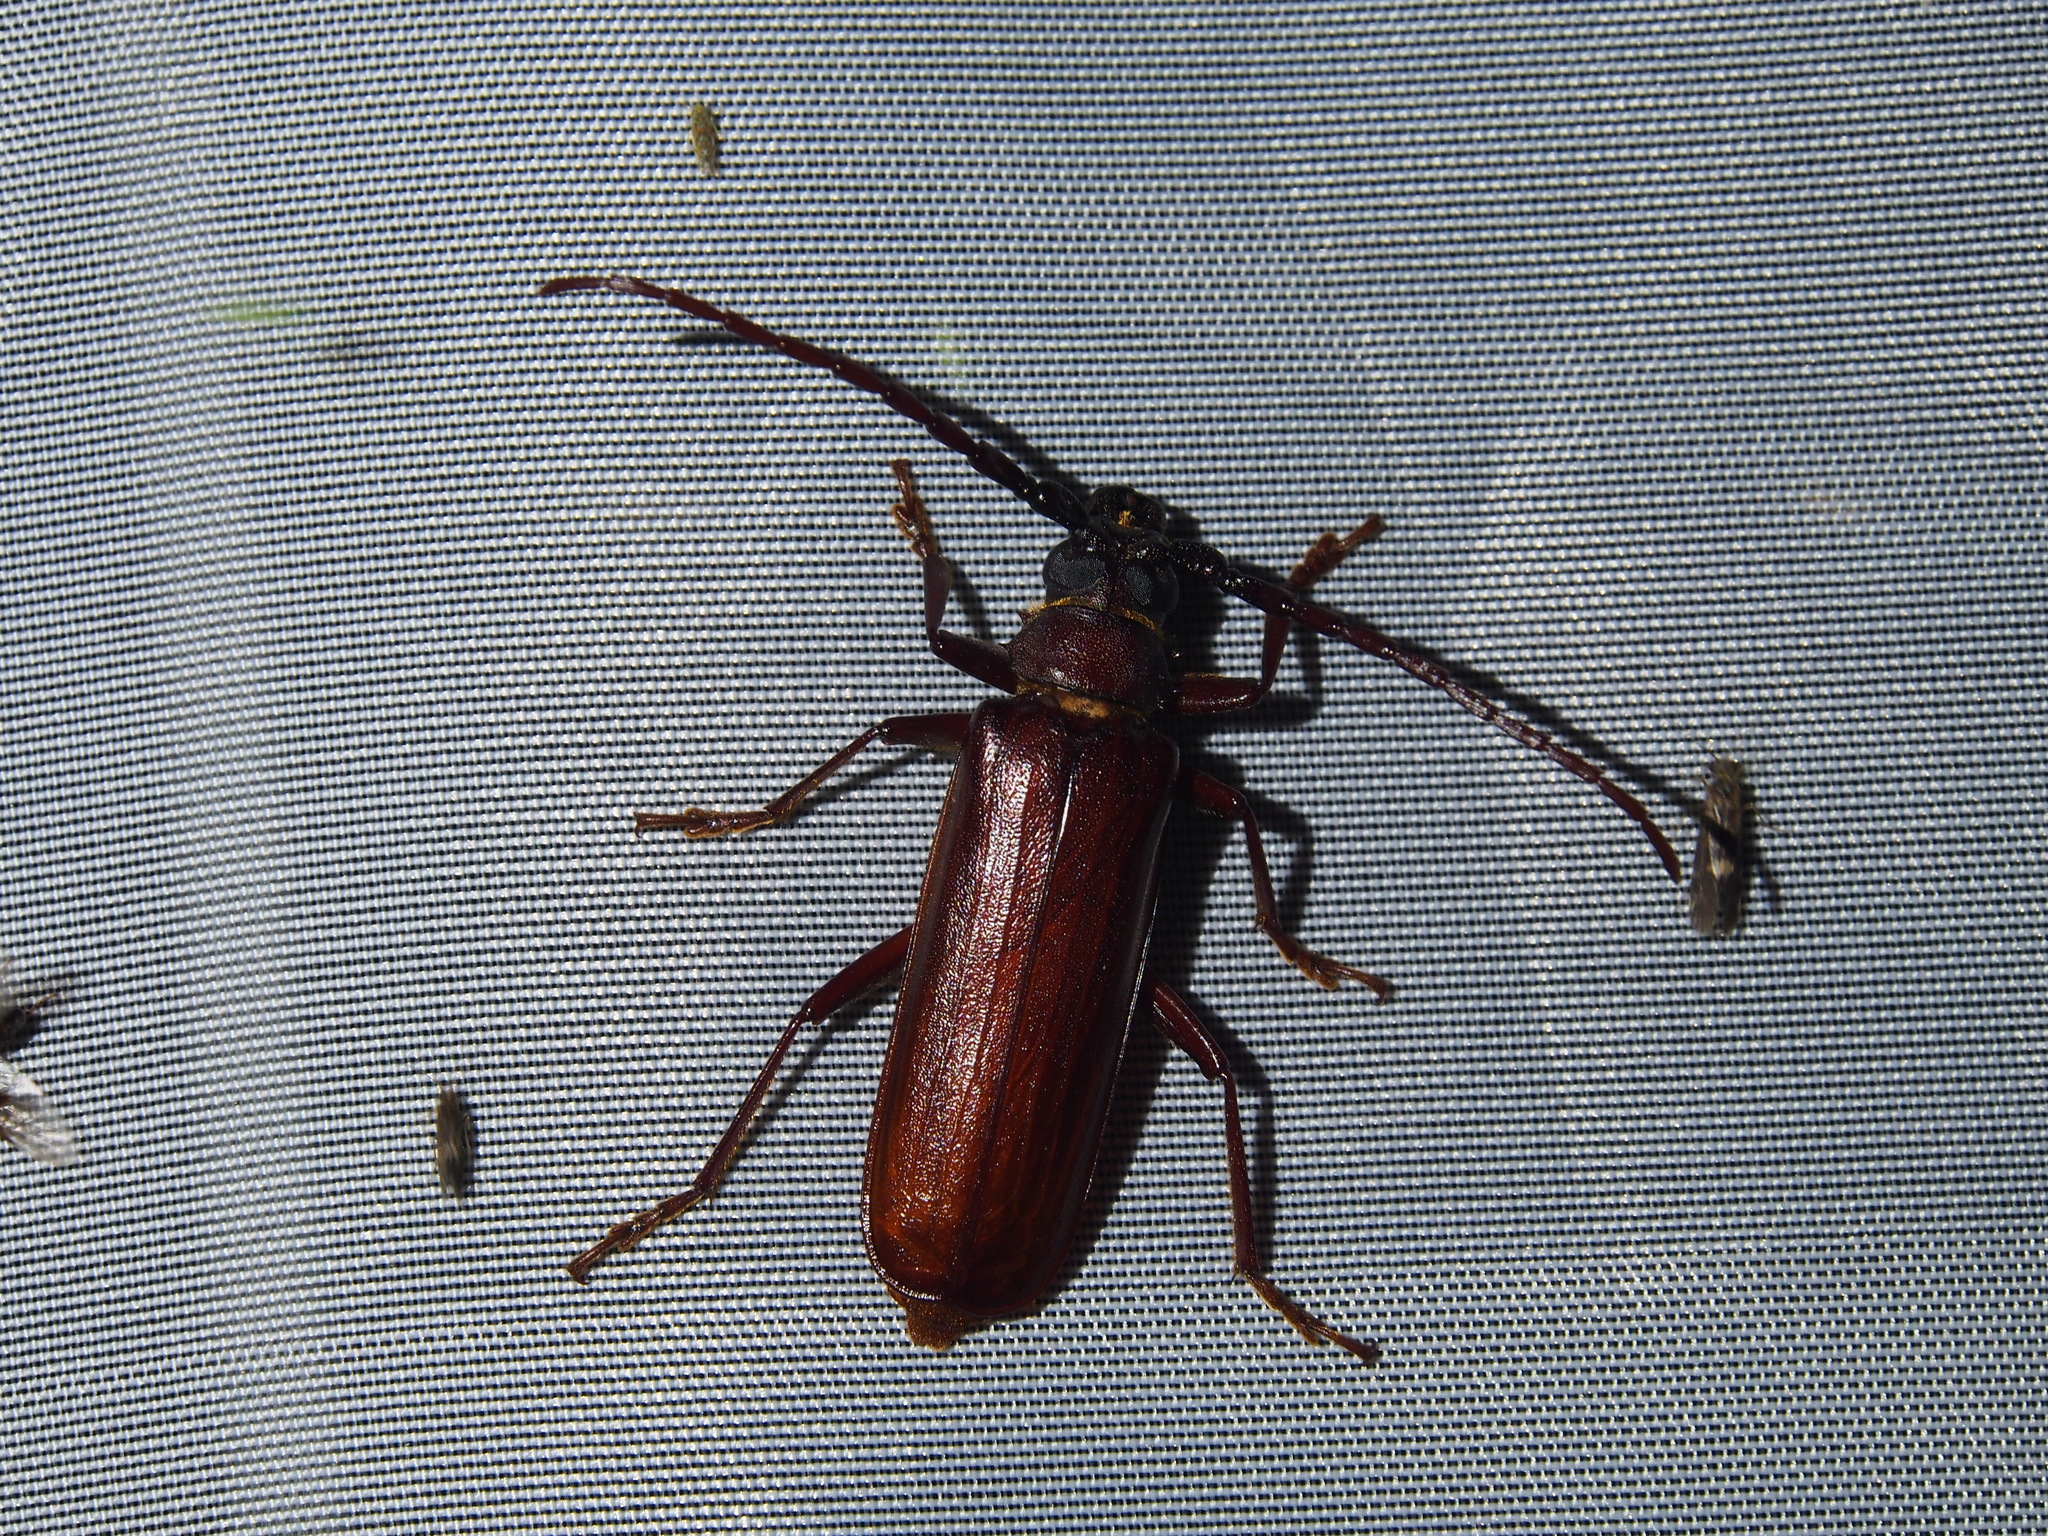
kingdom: Animalia
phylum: Arthropoda
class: Insecta
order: Coleoptera
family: Cerambycidae
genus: Orthosoma
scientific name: Orthosoma brunneum
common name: Brown prionid beetle
